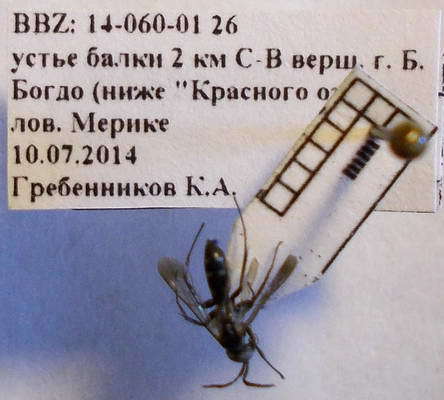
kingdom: Animalia
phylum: Arthropoda
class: Insecta
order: Hymenoptera
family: Pompilidae
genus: Aporinellus
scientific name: Aporinellus sexmaculatus
